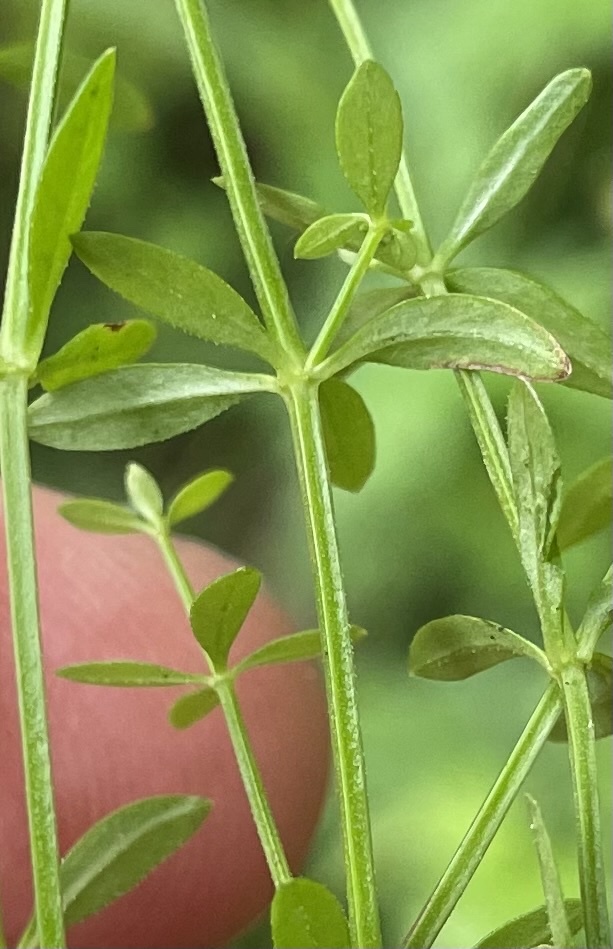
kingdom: Plantae
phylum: Tracheophyta
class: Magnoliopsida
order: Gentianales
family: Rubiaceae
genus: Galium
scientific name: Galium palustre
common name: Common marsh-bedstraw
